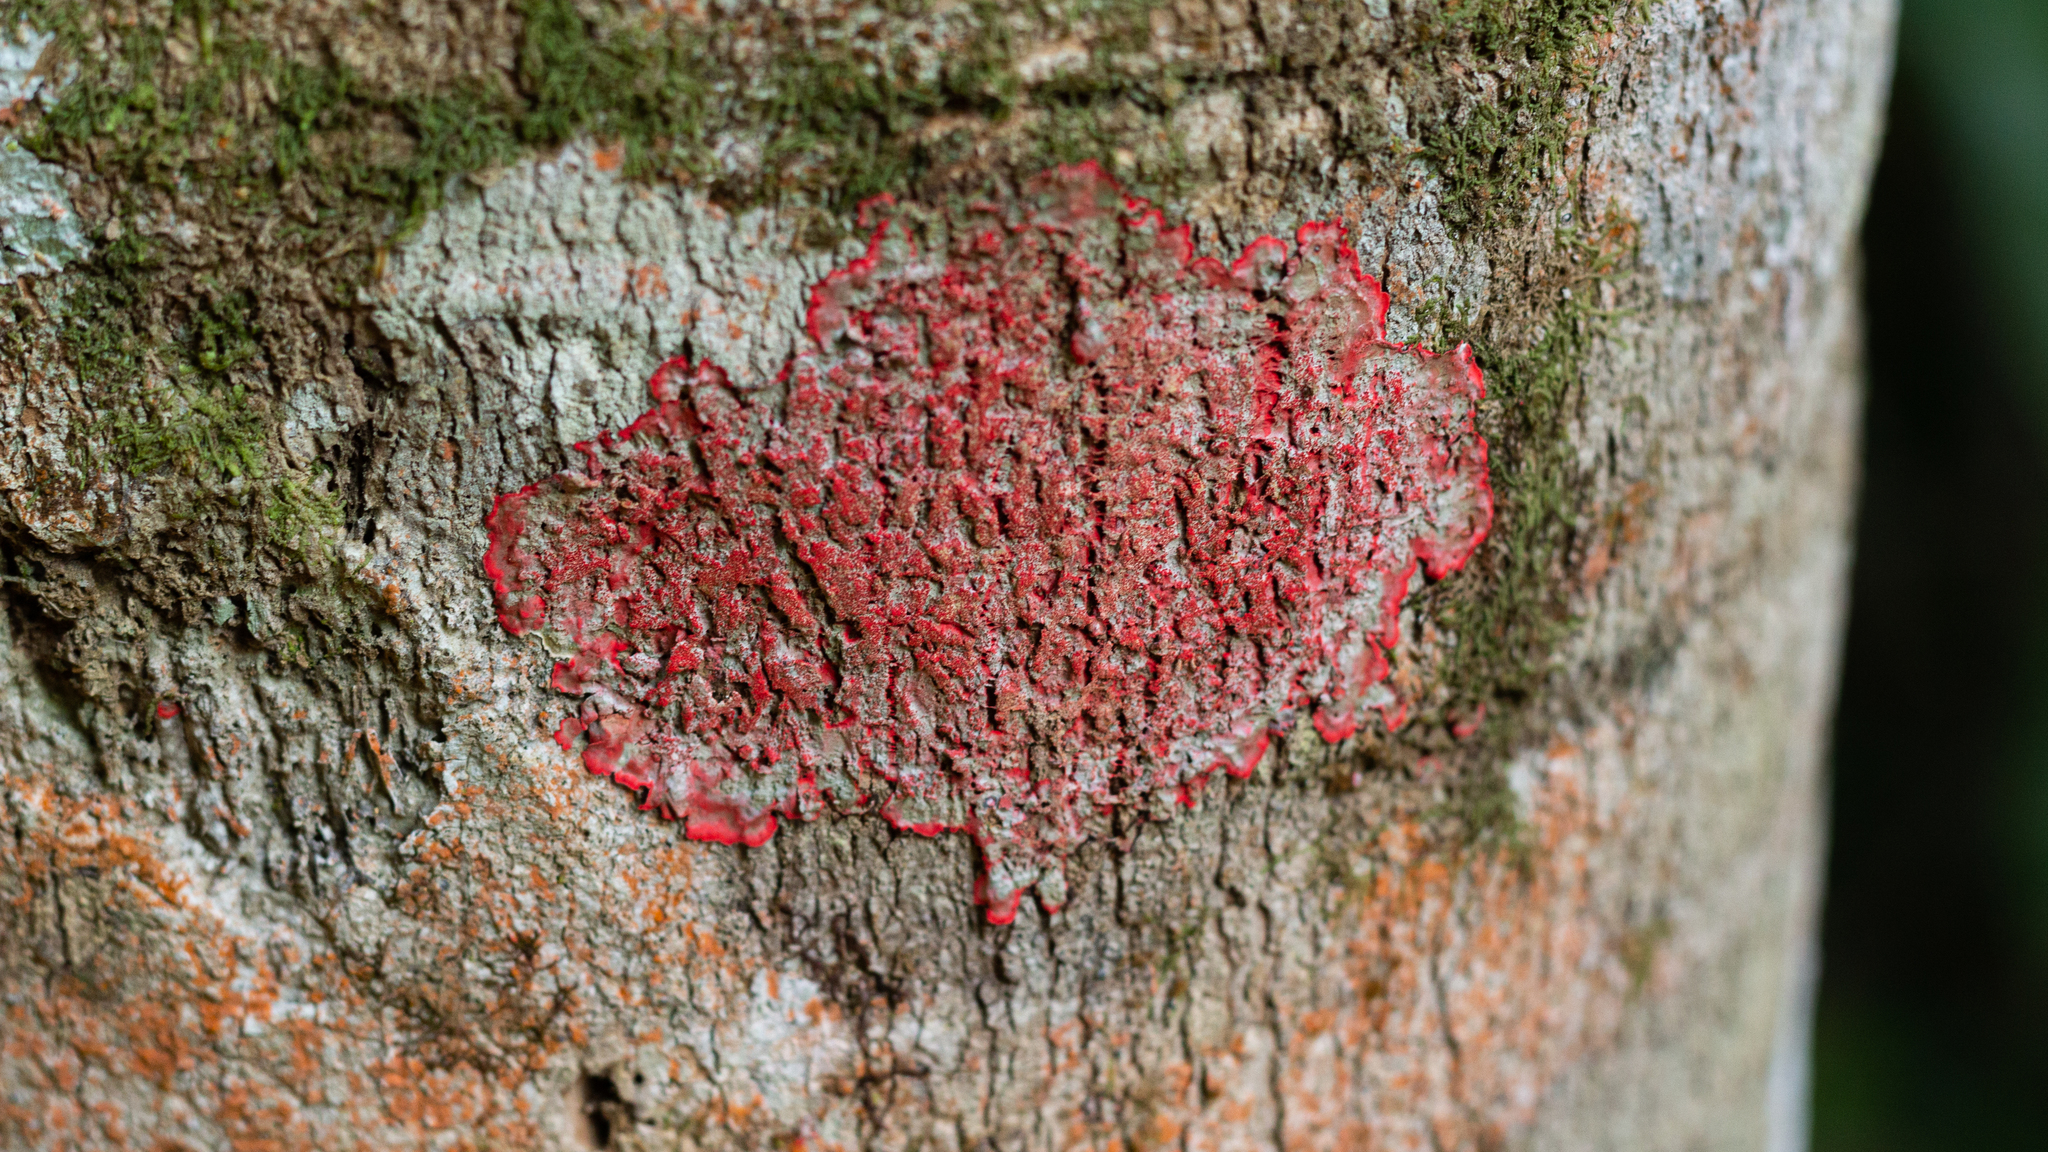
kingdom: Fungi
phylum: Ascomycota
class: Arthoniomycetes
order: Arthoniales
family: Arthoniaceae
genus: Herpothallon
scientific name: Herpothallon rubrocinctum
